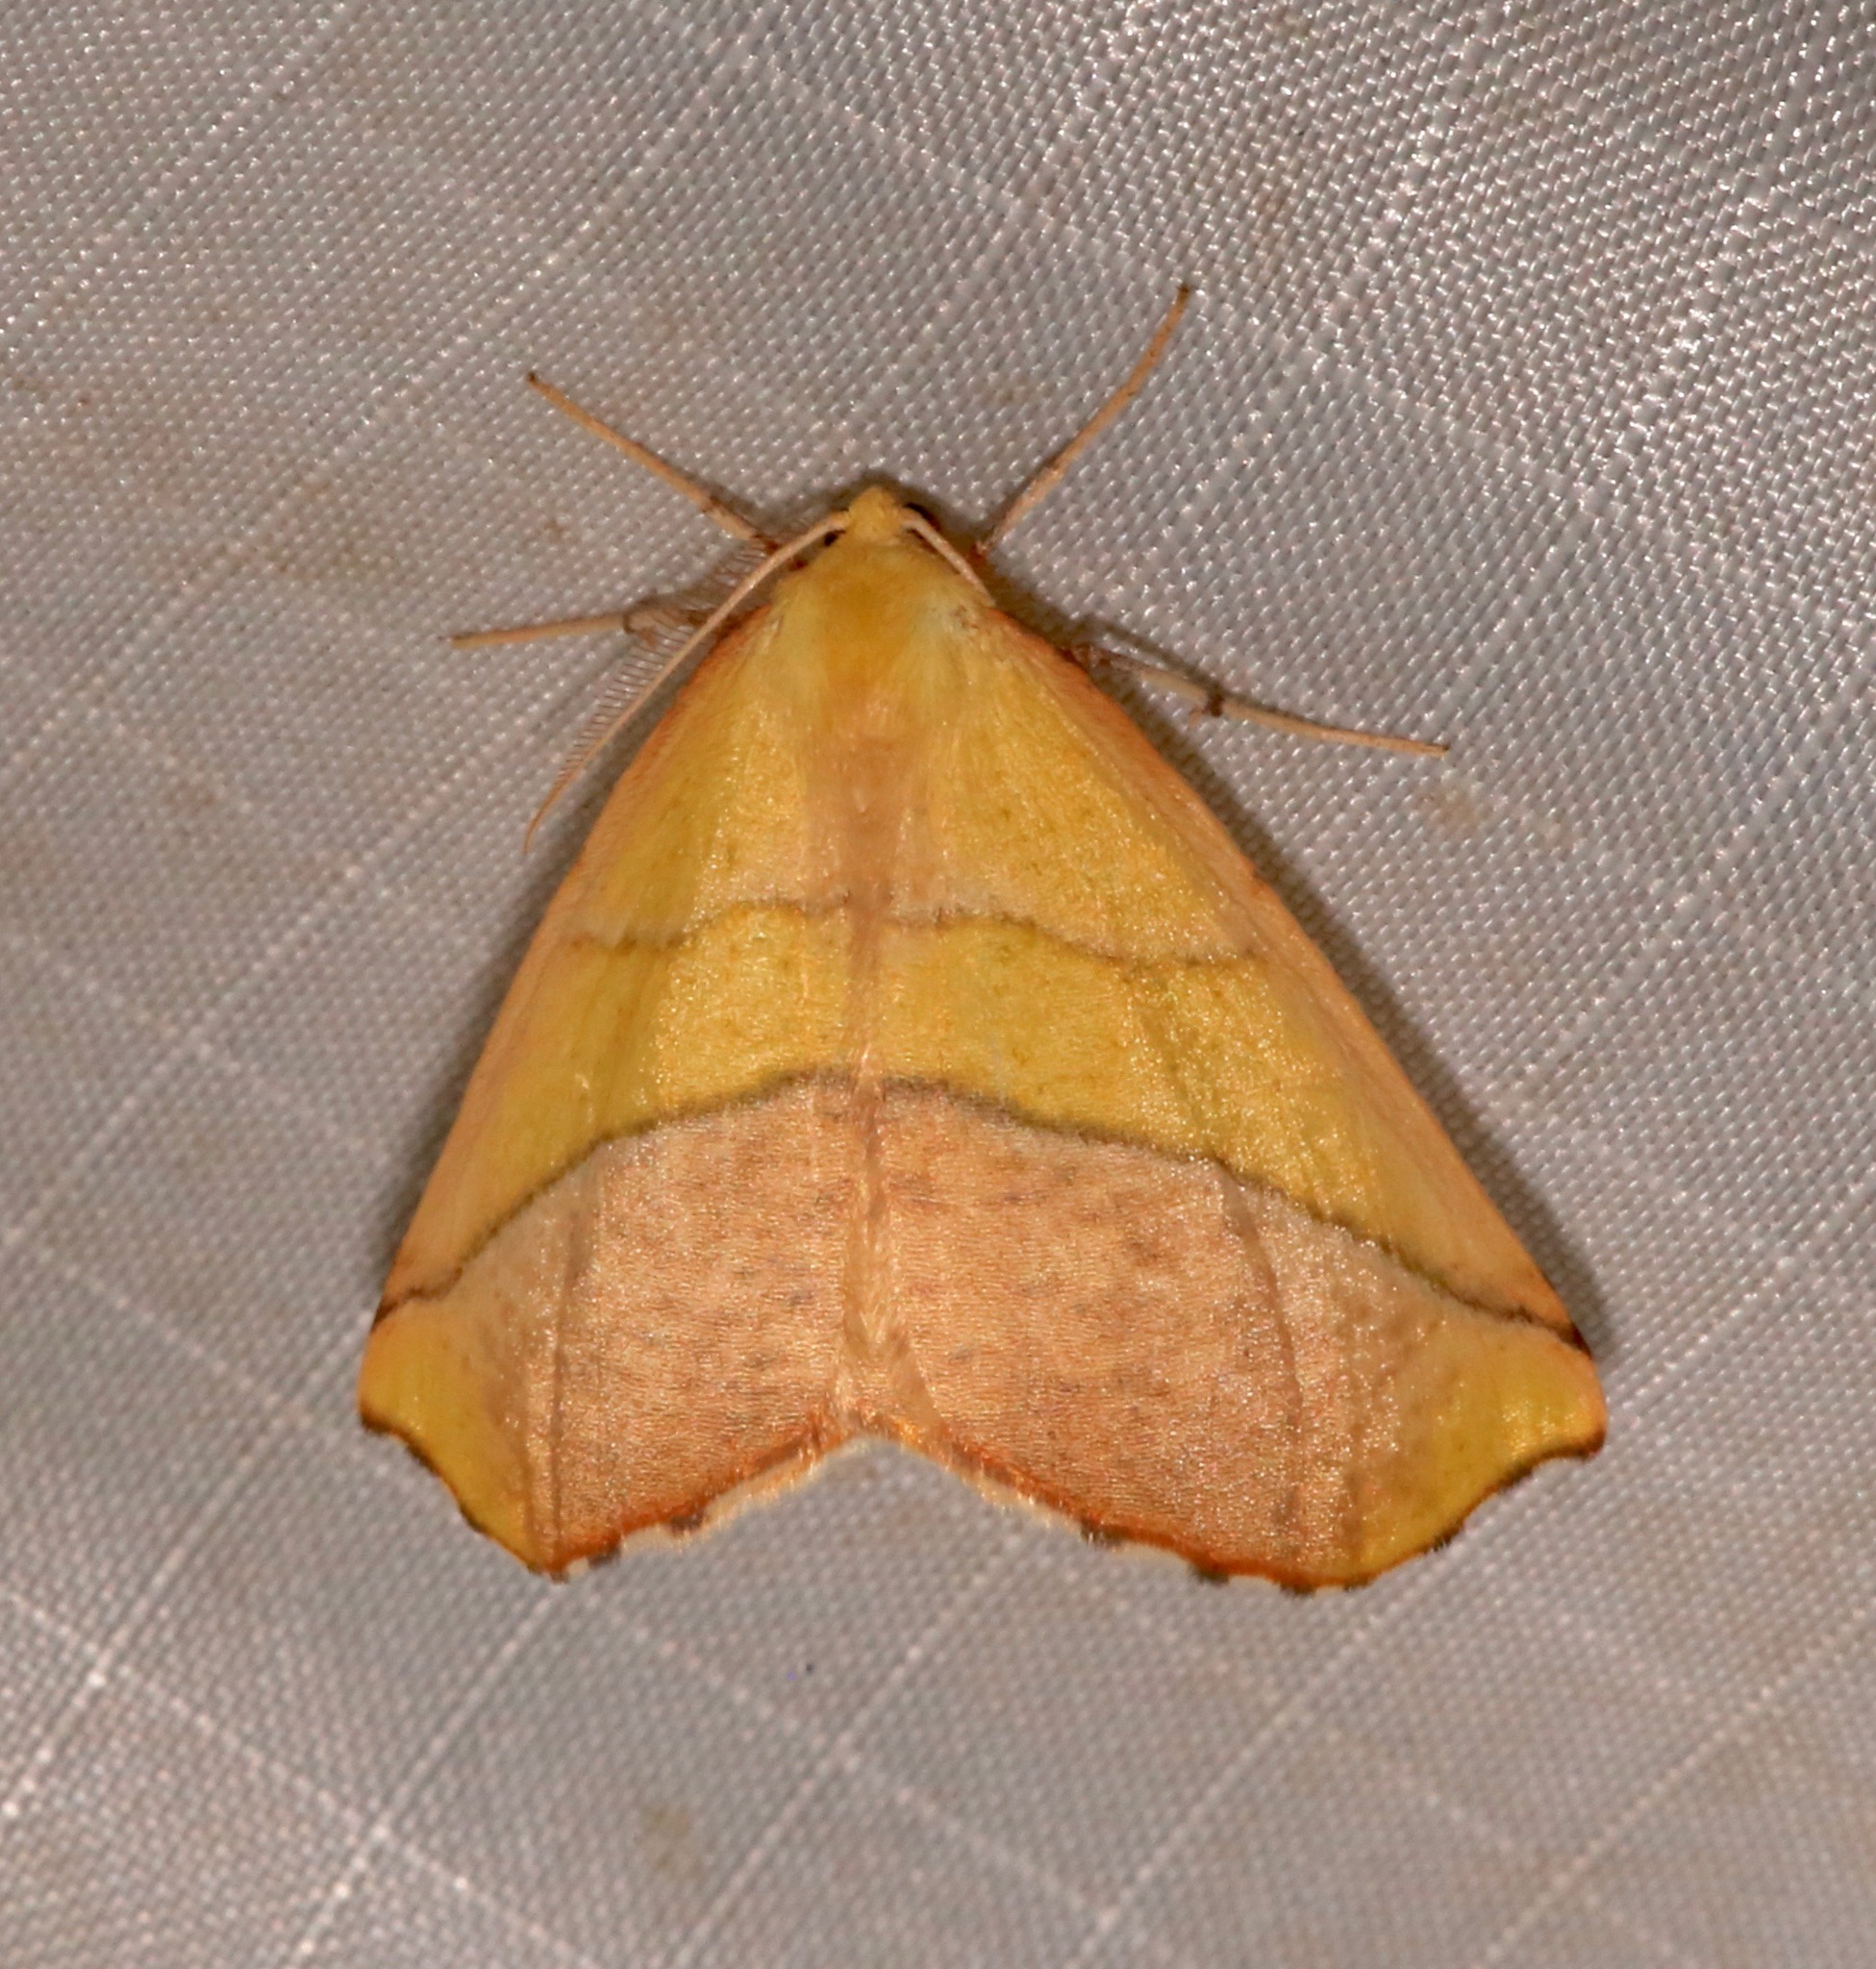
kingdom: Animalia
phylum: Arthropoda
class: Insecta
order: Lepidoptera
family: Geometridae
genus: Sicya
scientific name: Sicya macularia
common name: Sharp-lined yellow
